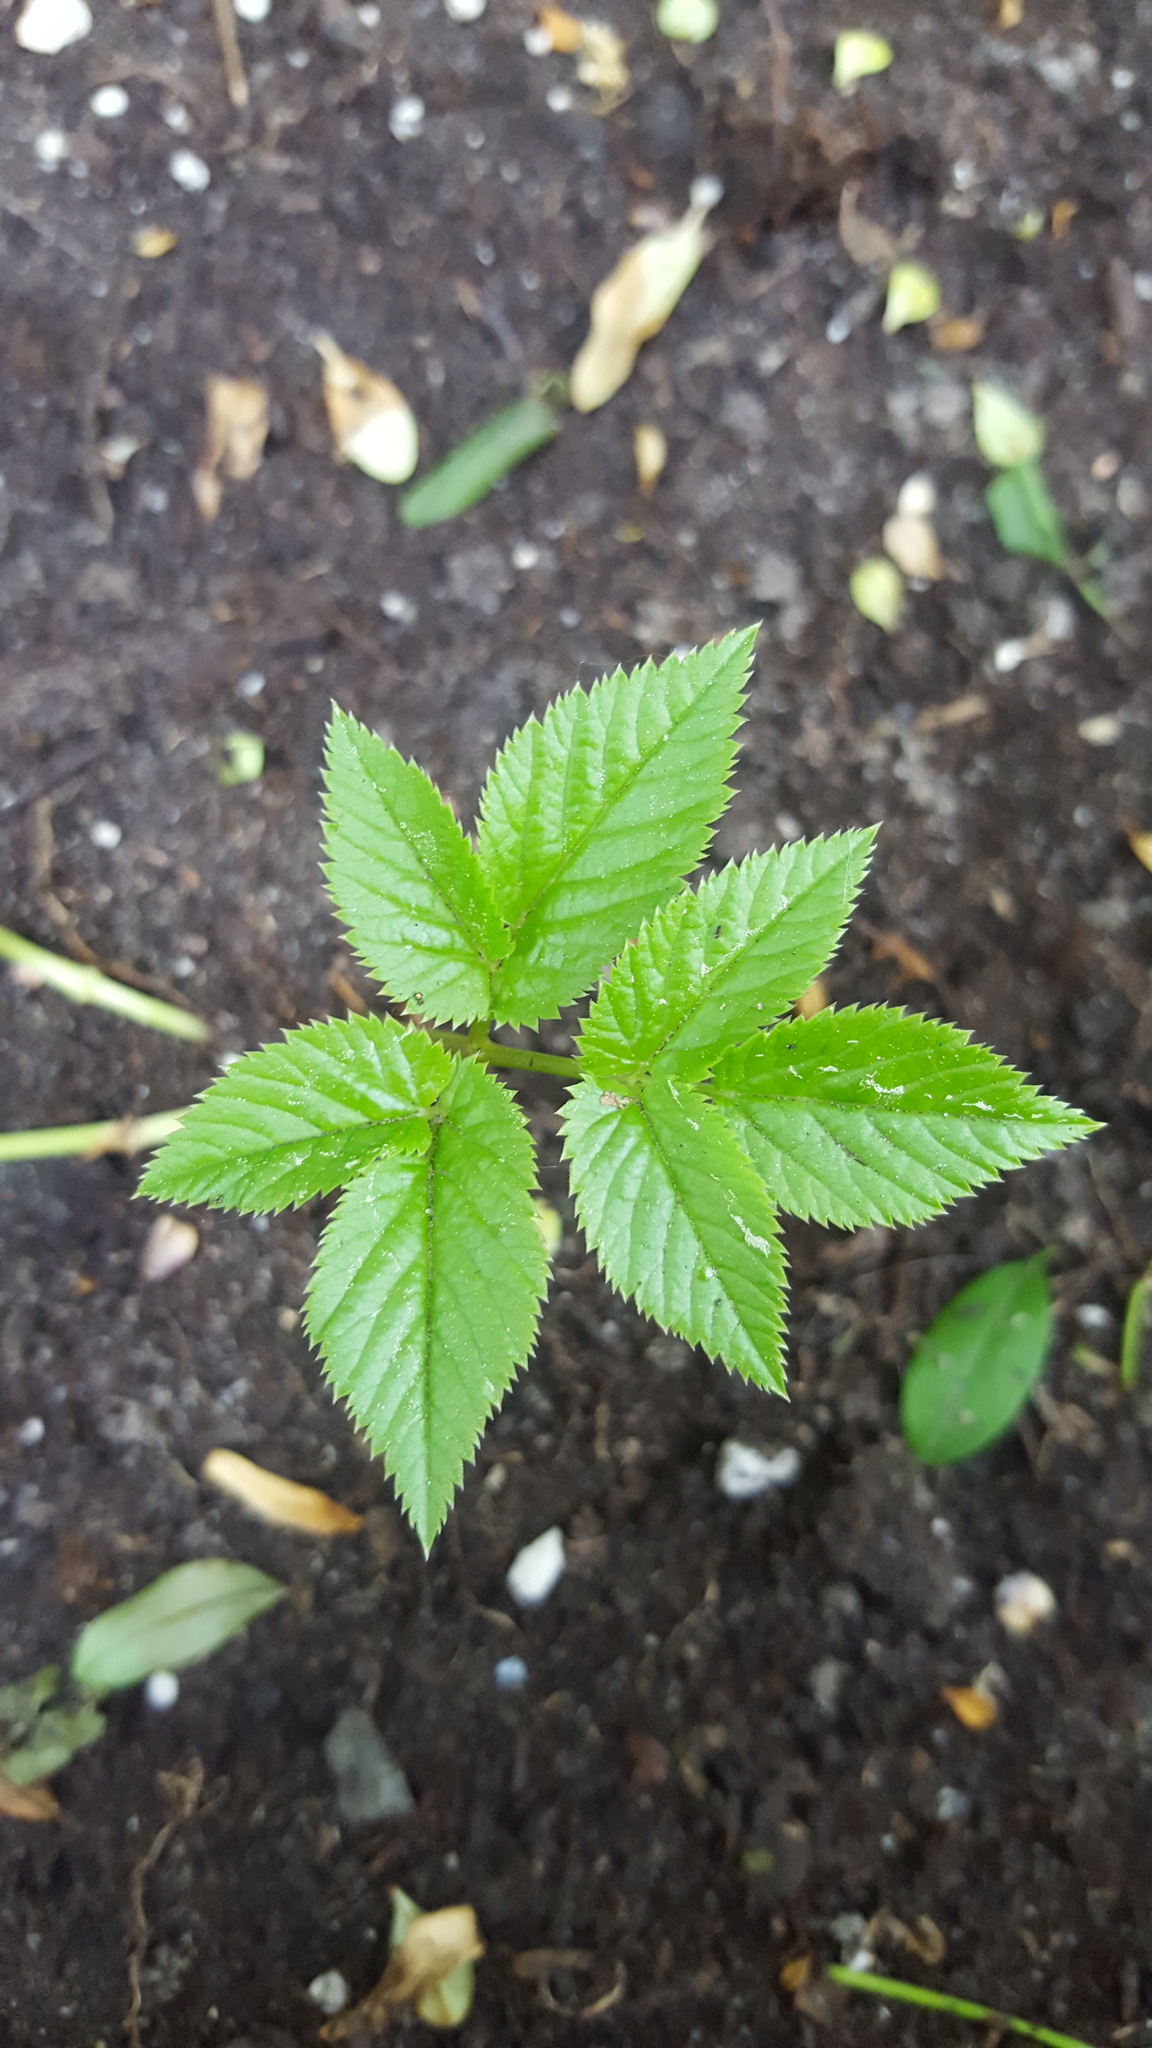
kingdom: Plantae
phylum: Tracheophyta
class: Magnoliopsida
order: Apiales
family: Apiaceae
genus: Aegopodium
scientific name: Aegopodium podagraria
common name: Ground-elder
